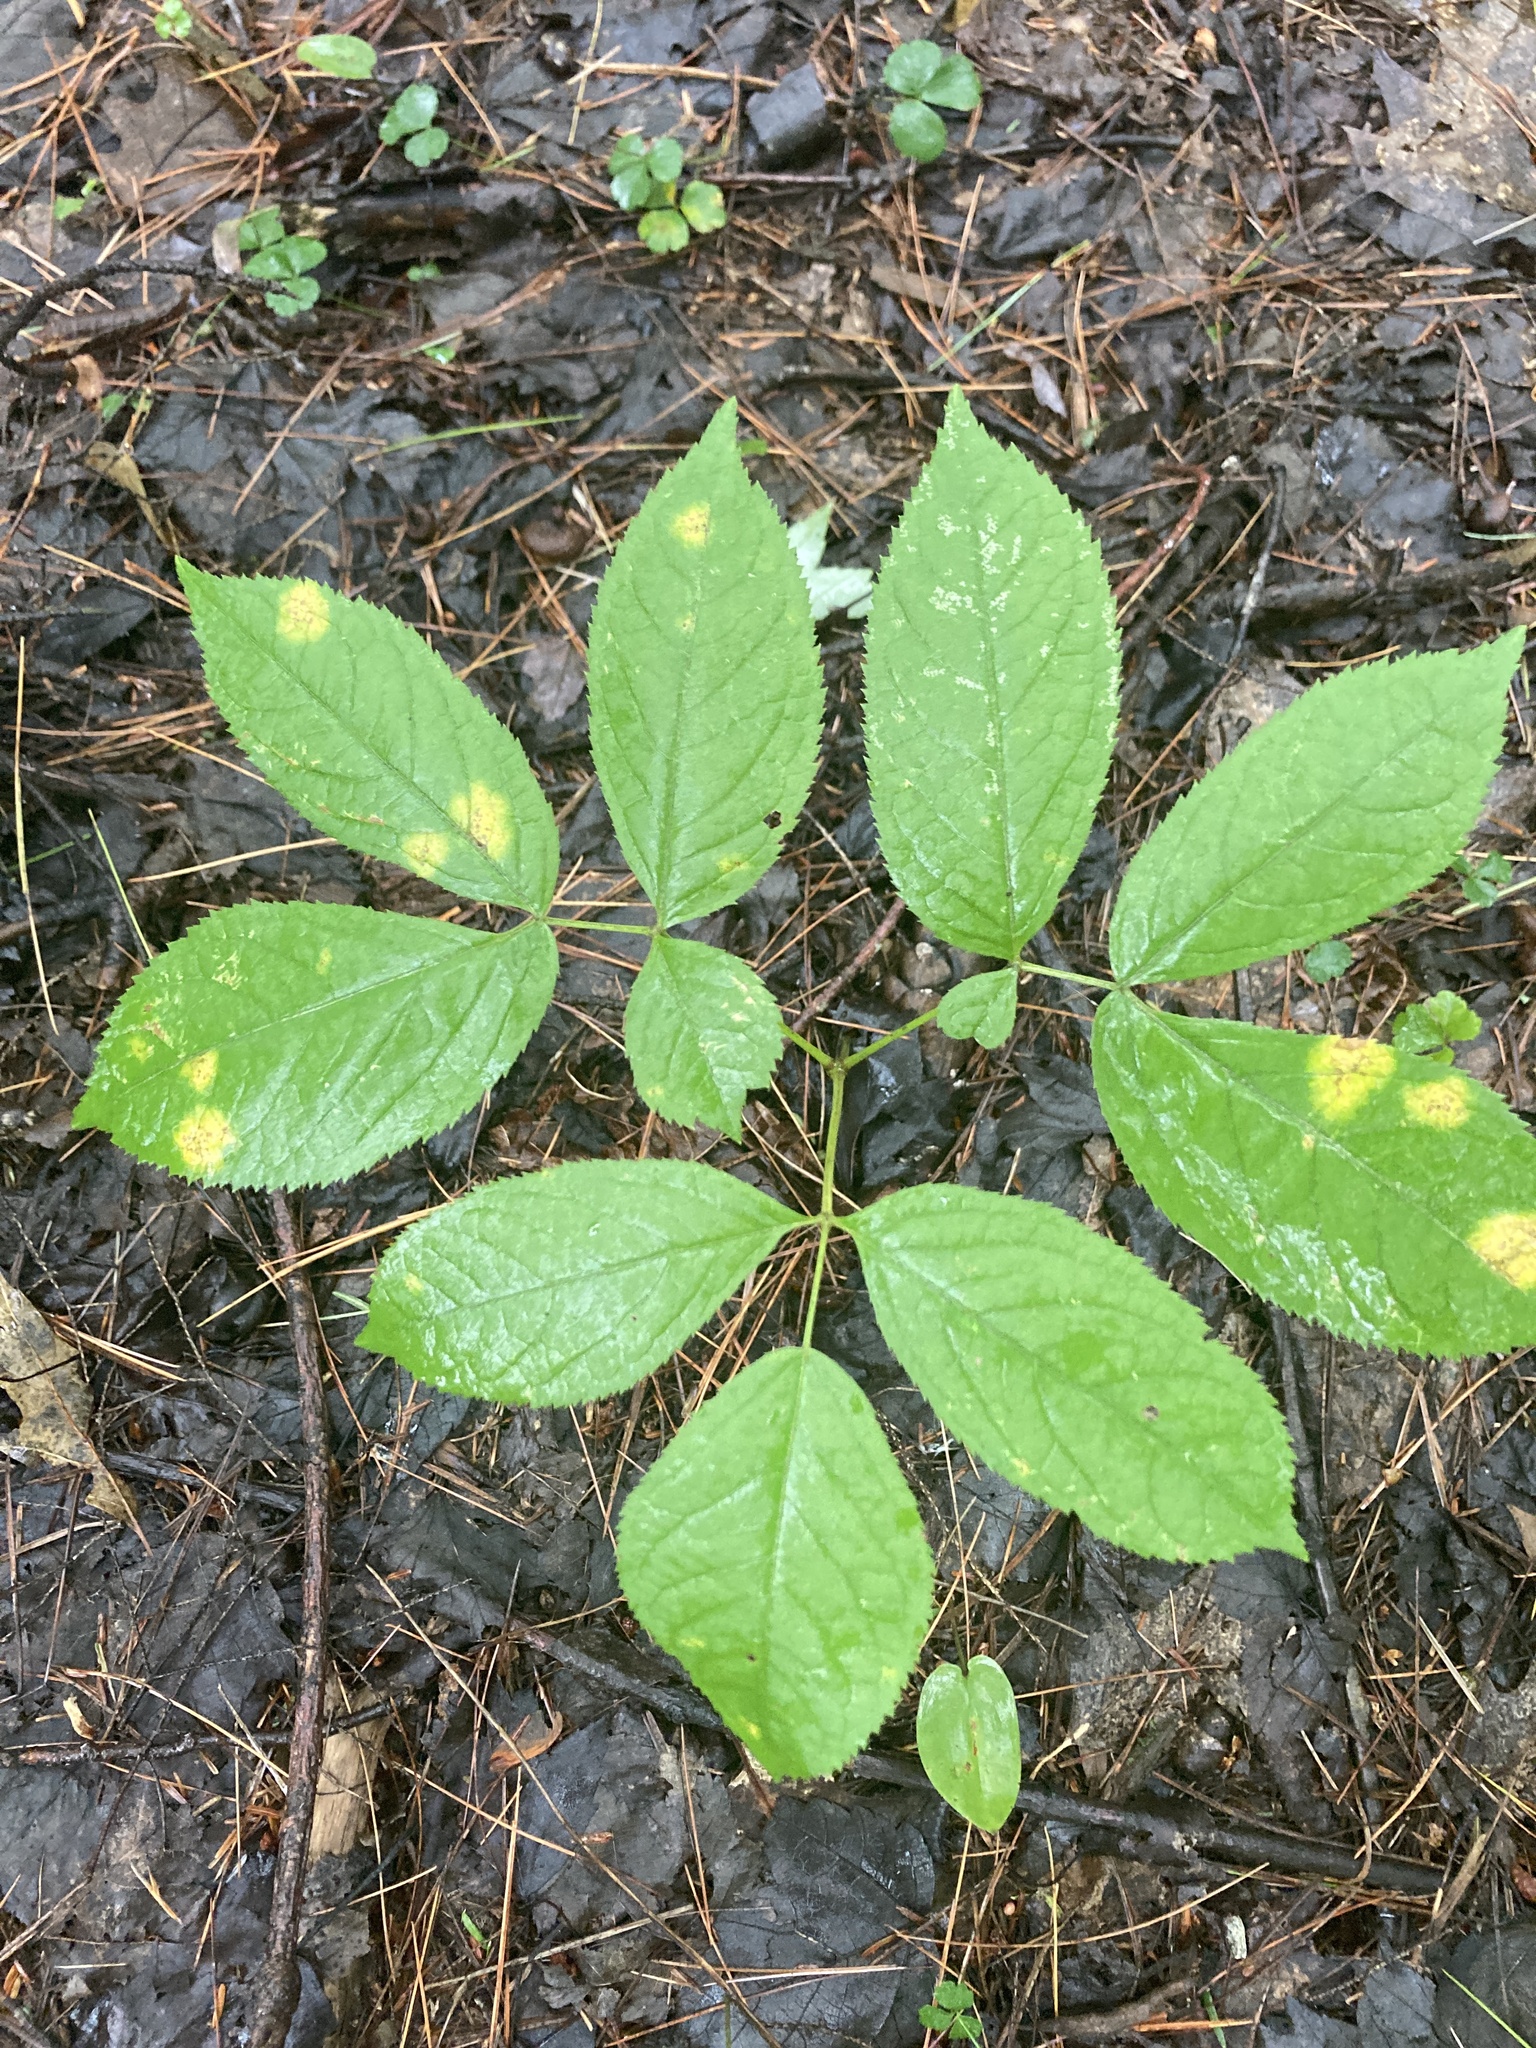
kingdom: Plantae
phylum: Tracheophyta
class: Magnoliopsida
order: Apiales
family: Araliaceae
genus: Aralia
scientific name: Aralia nudicaulis
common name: Wild sarsaparilla
